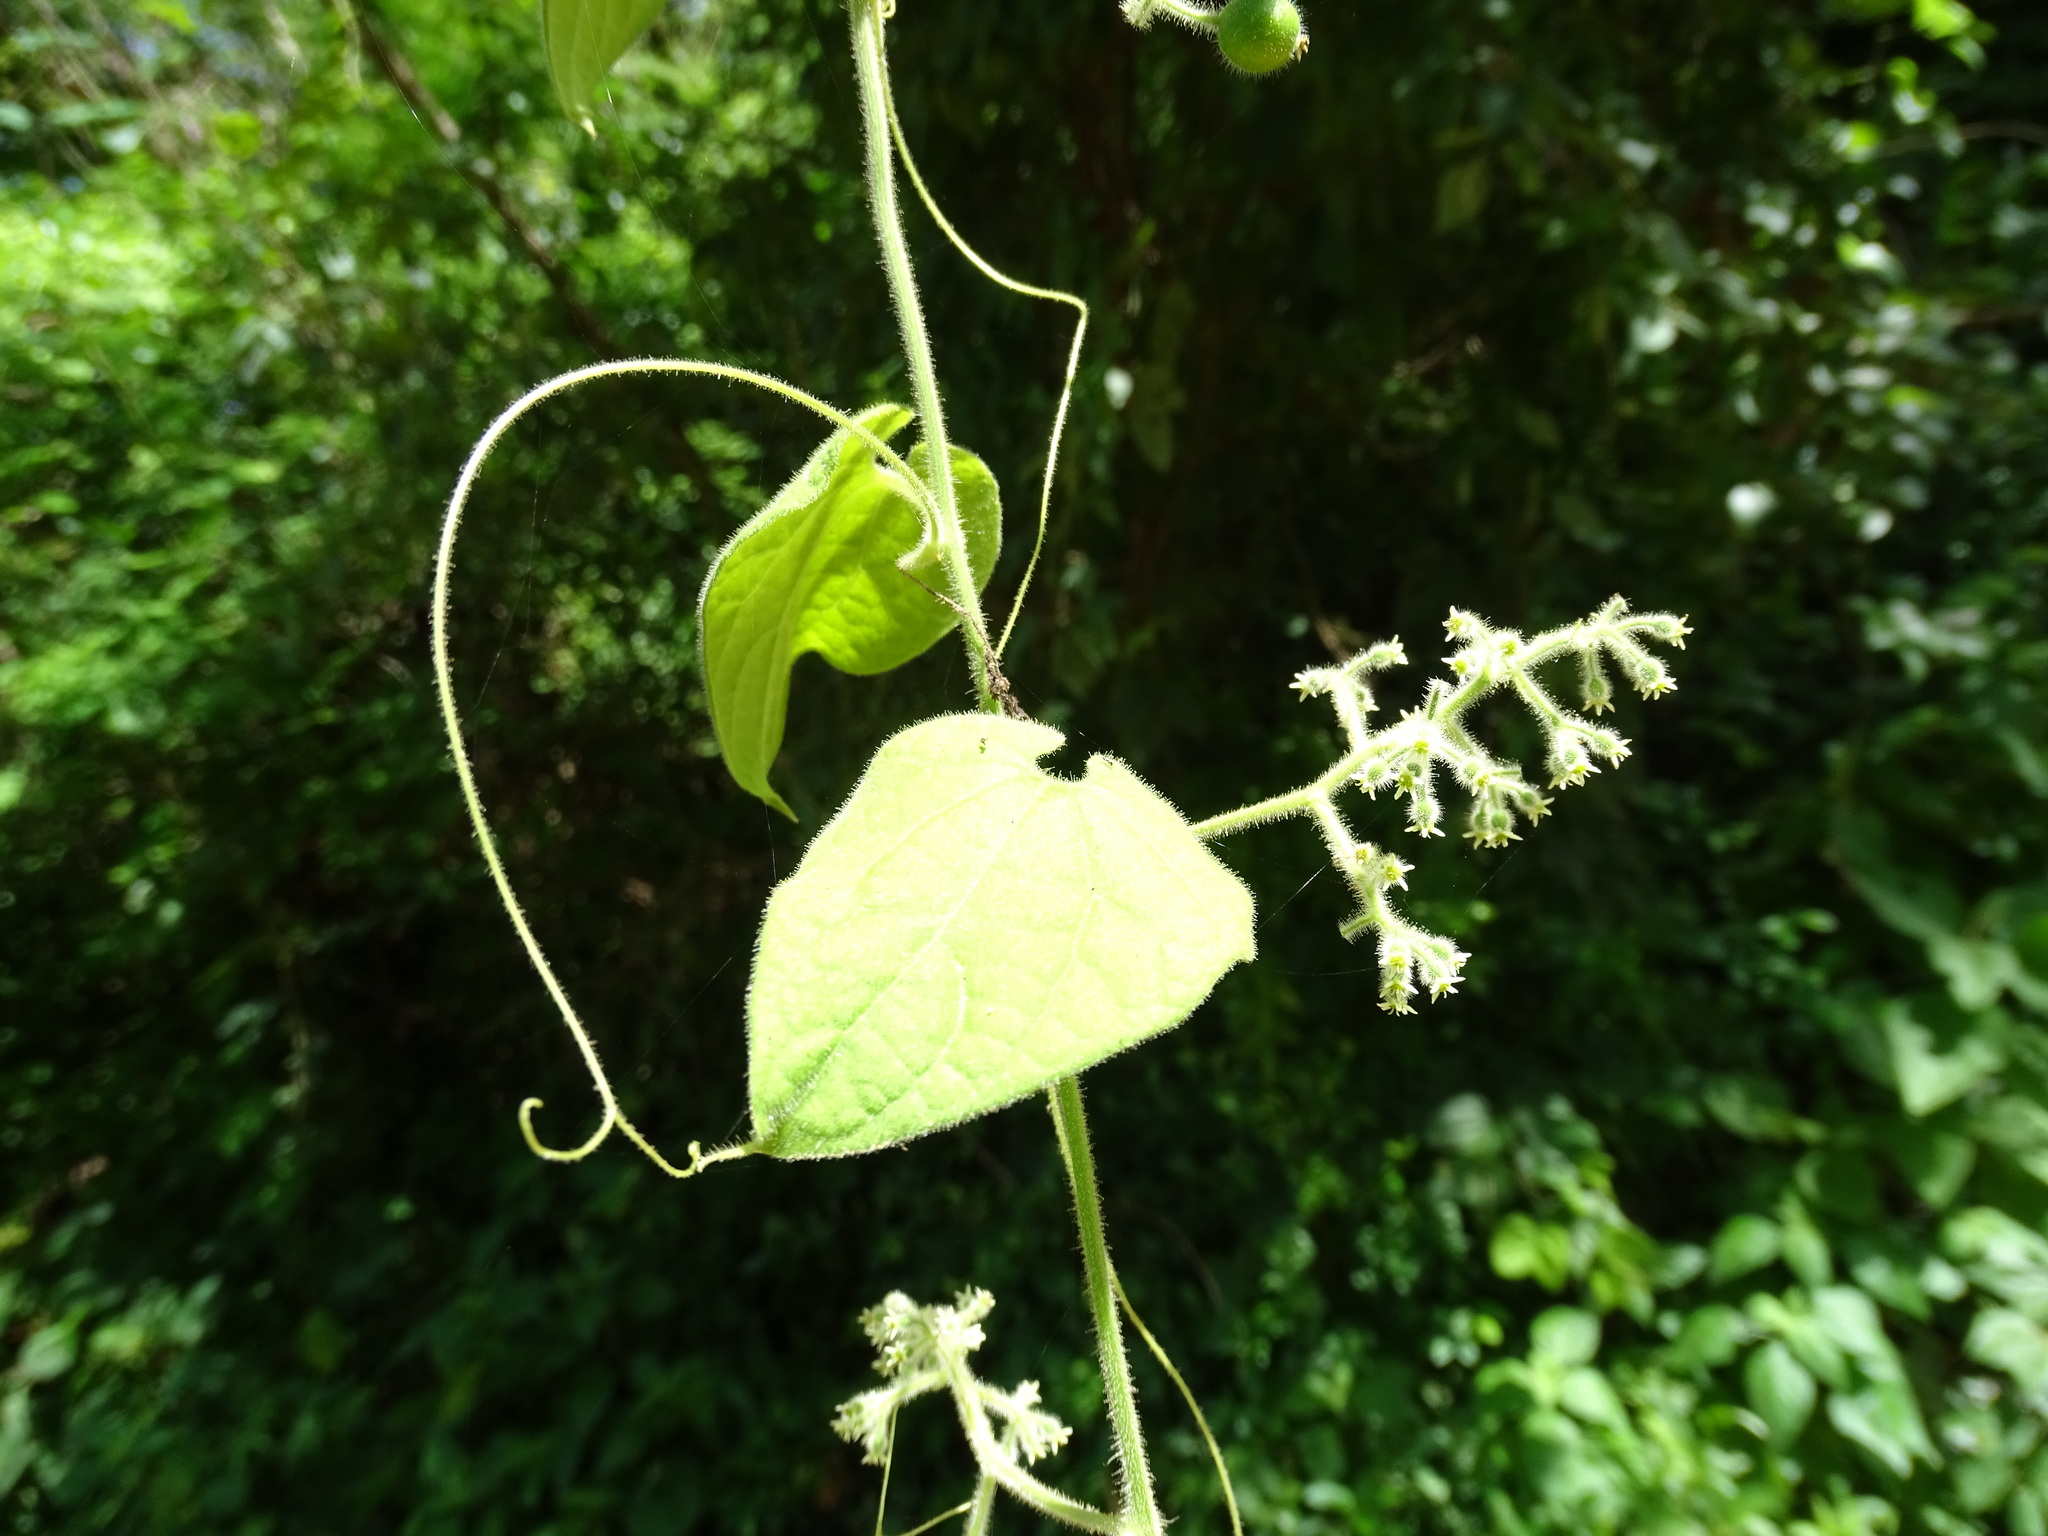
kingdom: Plantae
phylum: Tracheophyta
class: Magnoliopsida
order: Cucurbitales
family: Cucurbitaceae
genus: Sicydium
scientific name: Sicydium tamnifolium
